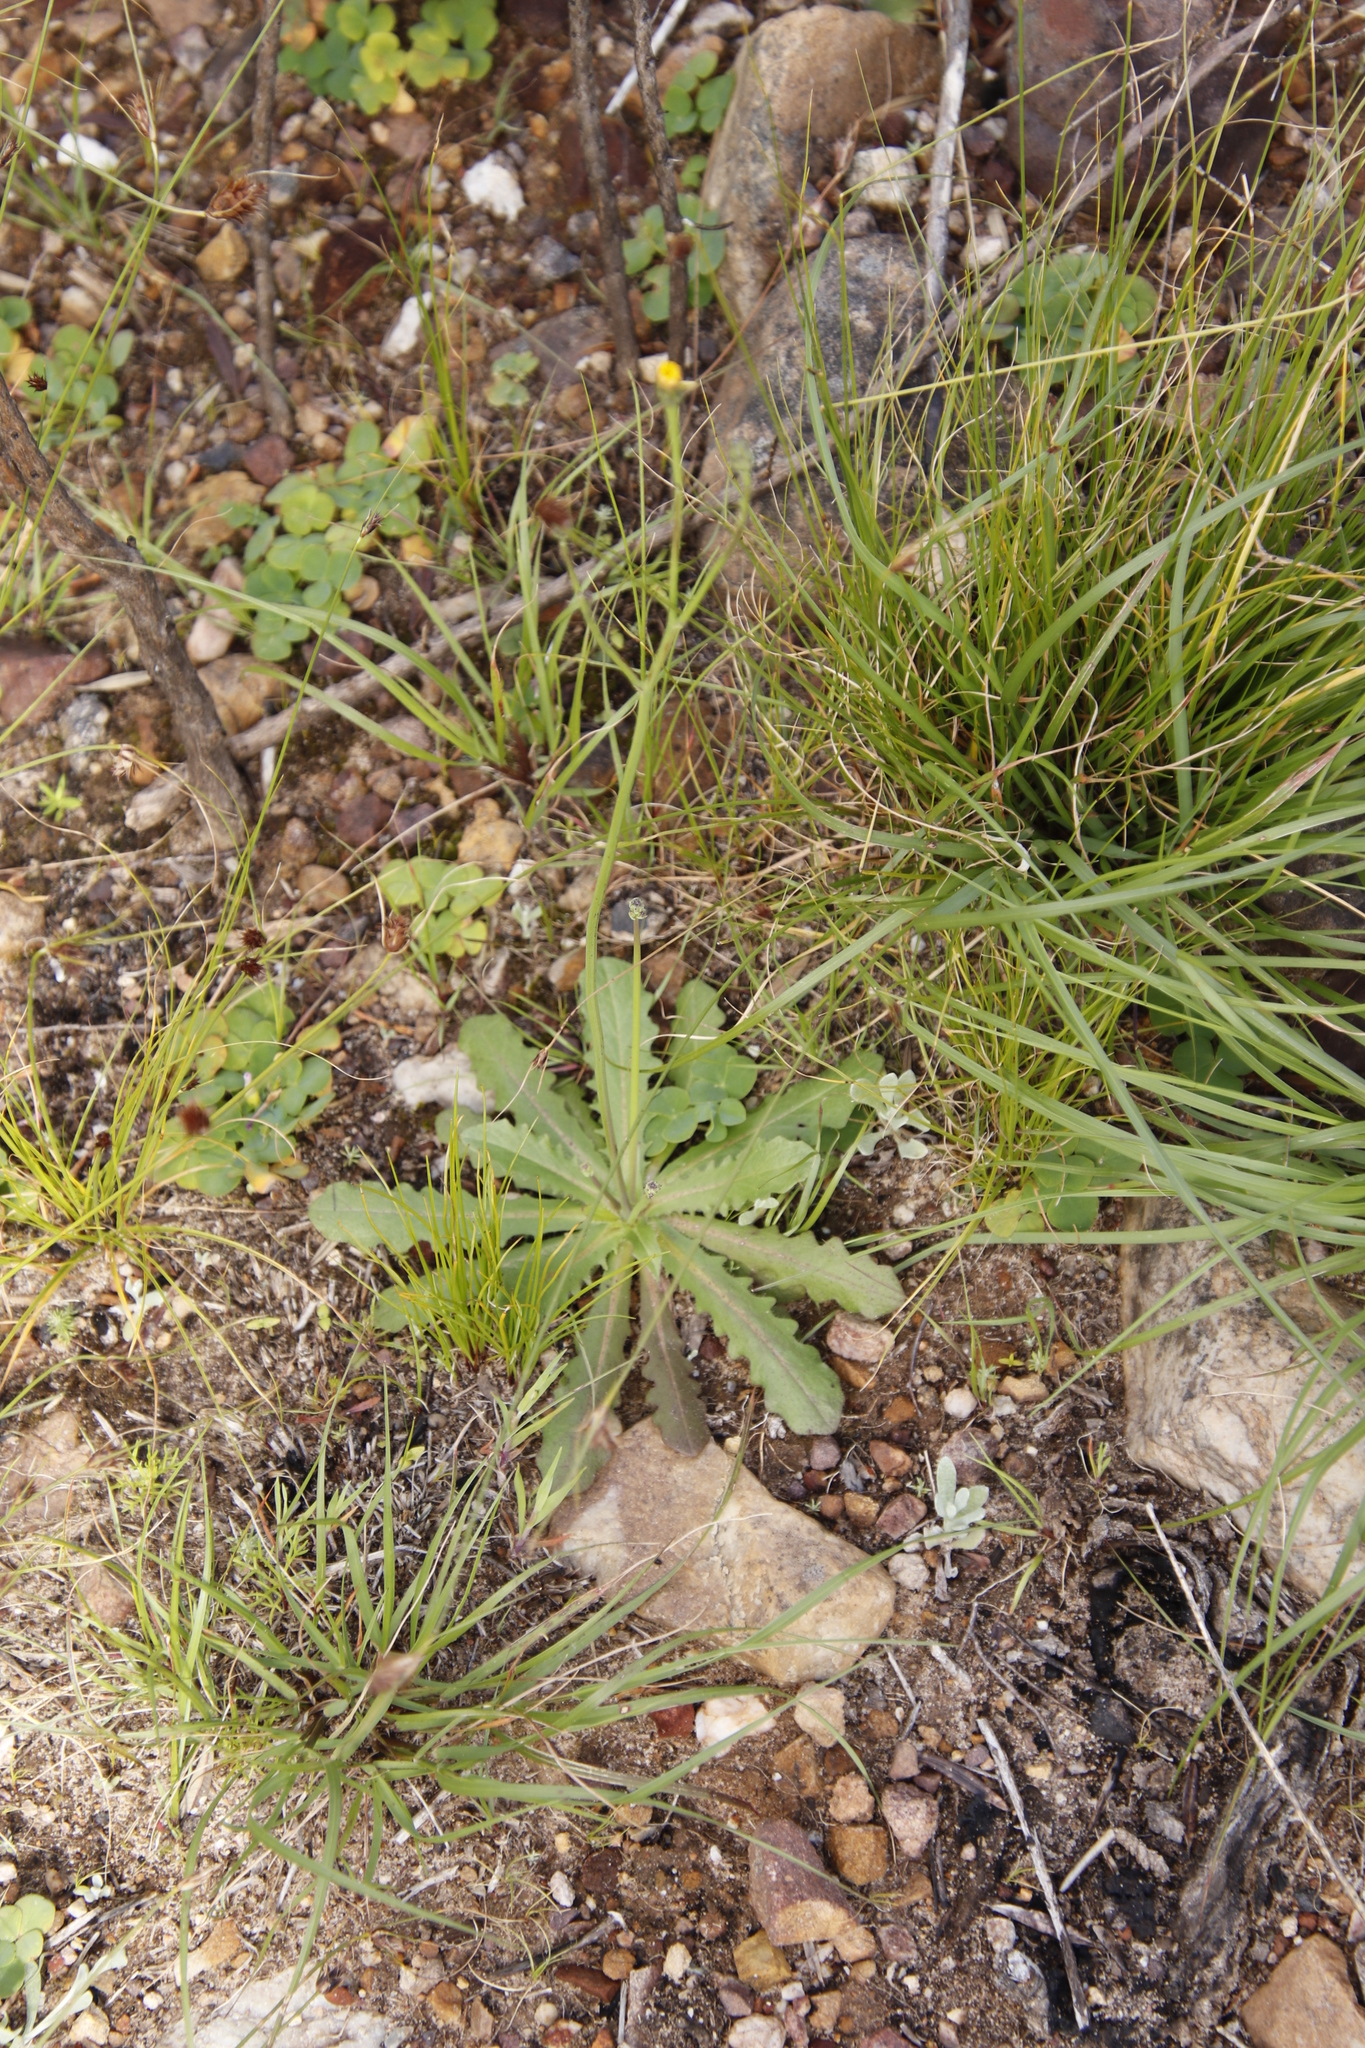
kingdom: Plantae
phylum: Tracheophyta
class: Magnoliopsida
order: Asterales
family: Asteraceae
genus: Hypochaeris
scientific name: Hypochaeris glabra
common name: Smooth catsear
